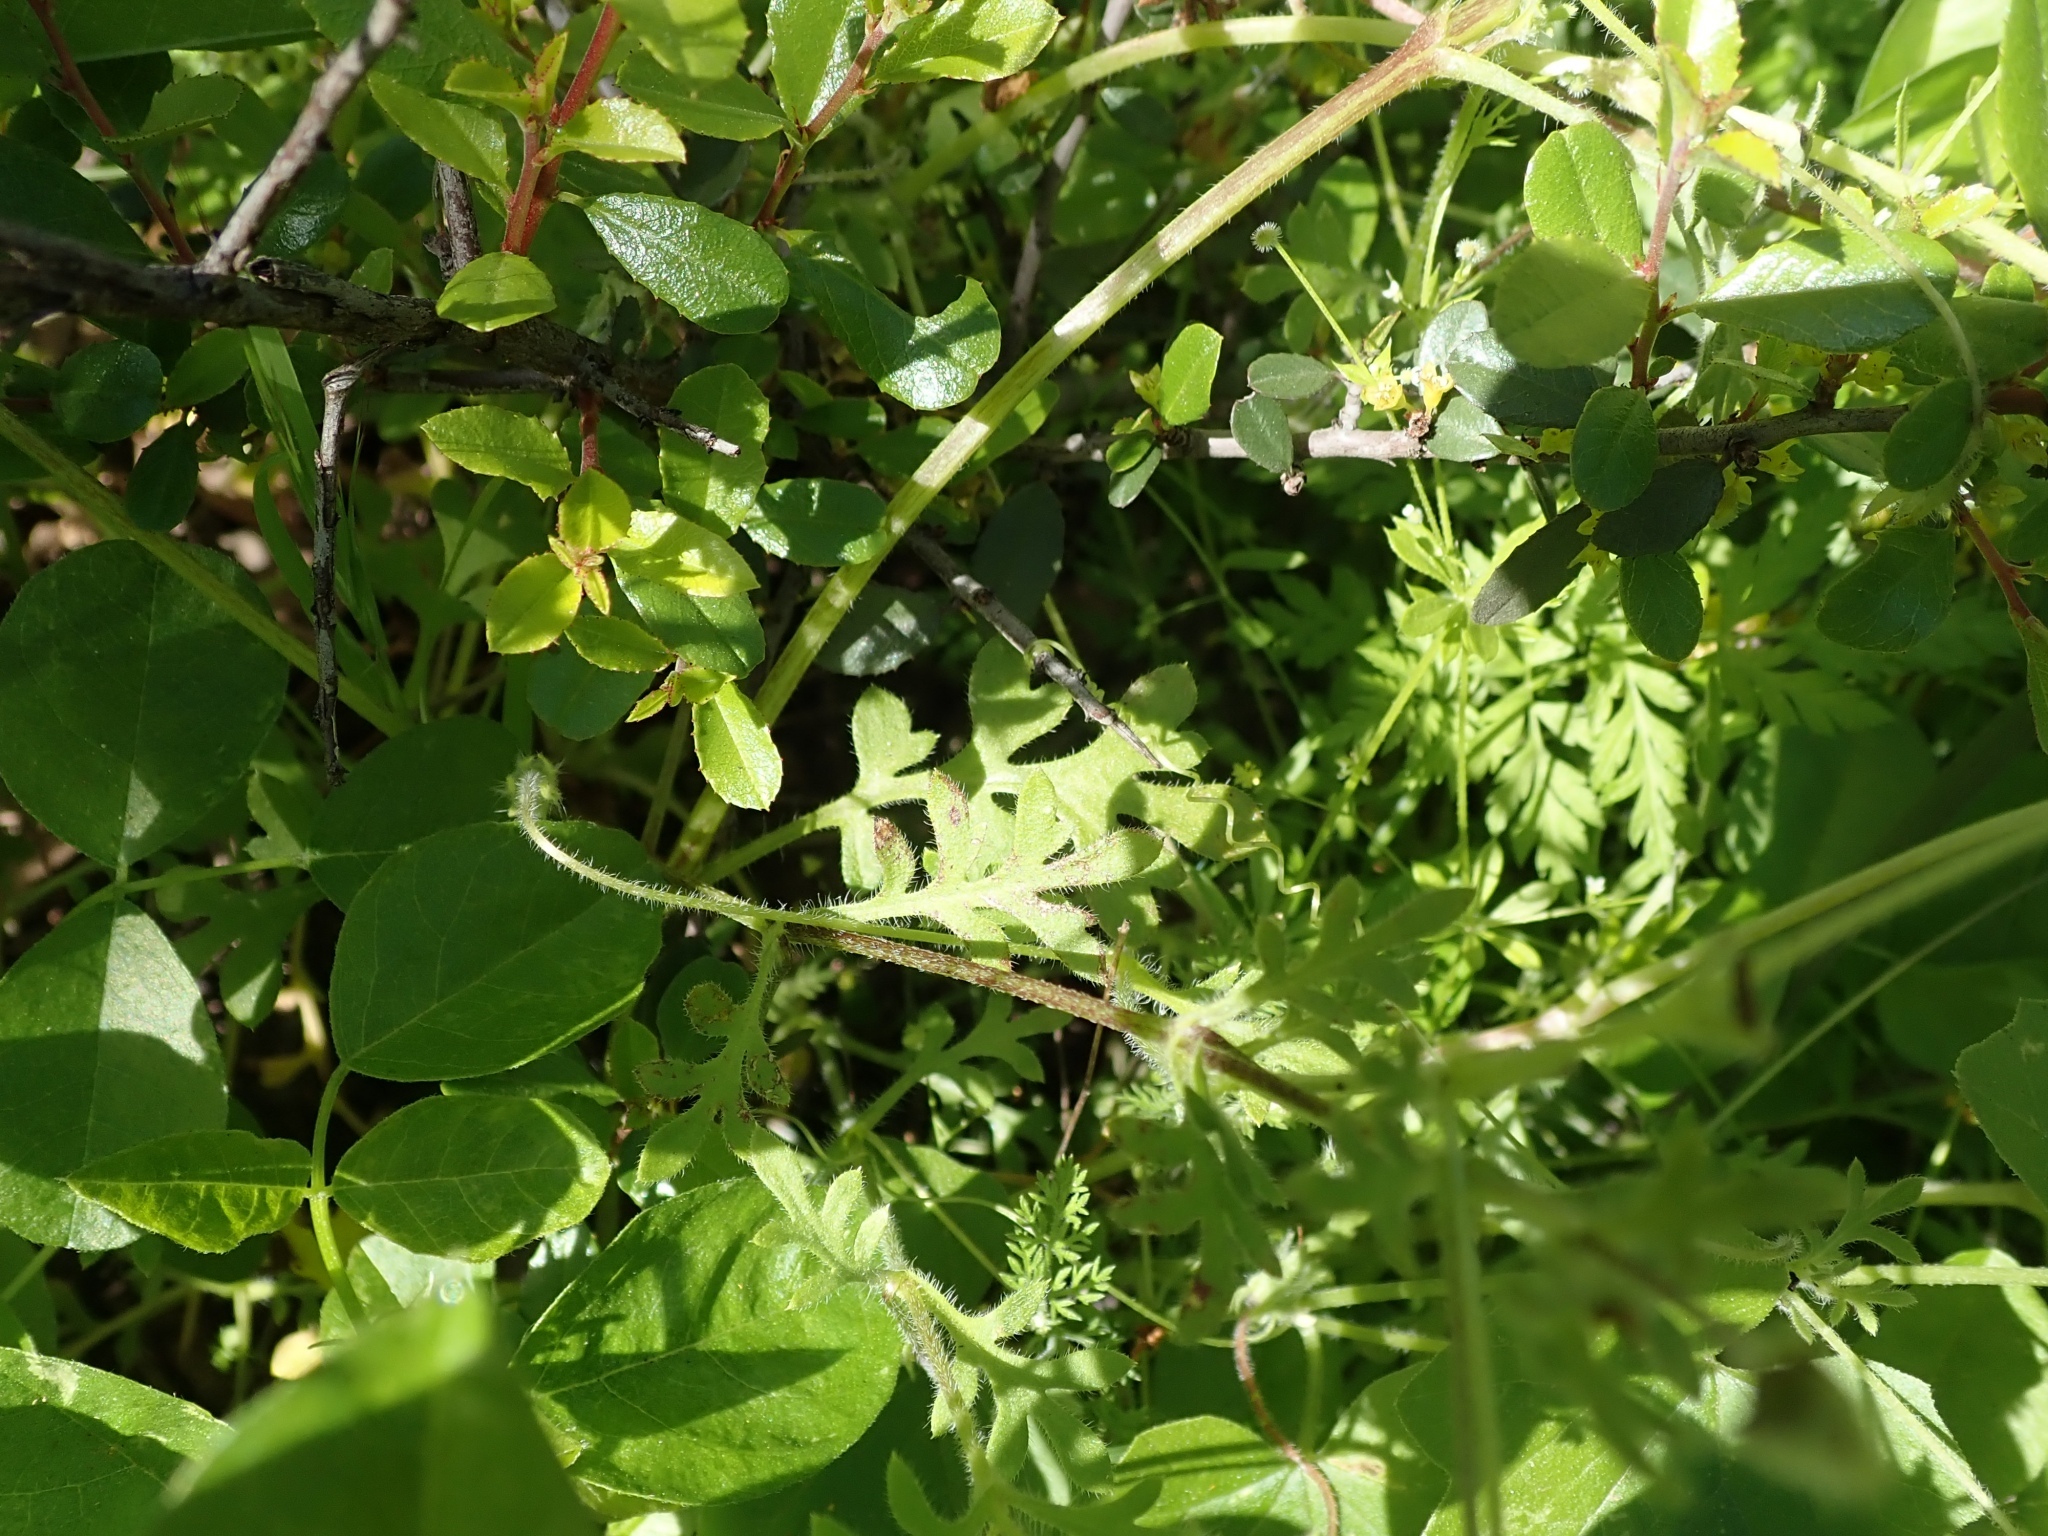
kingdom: Plantae
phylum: Tracheophyta
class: Magnoliopsida
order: Boraginales
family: Hydrophyllaceae
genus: Nemophila
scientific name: Nemophila menziesii
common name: Baby's-blue-eyes
